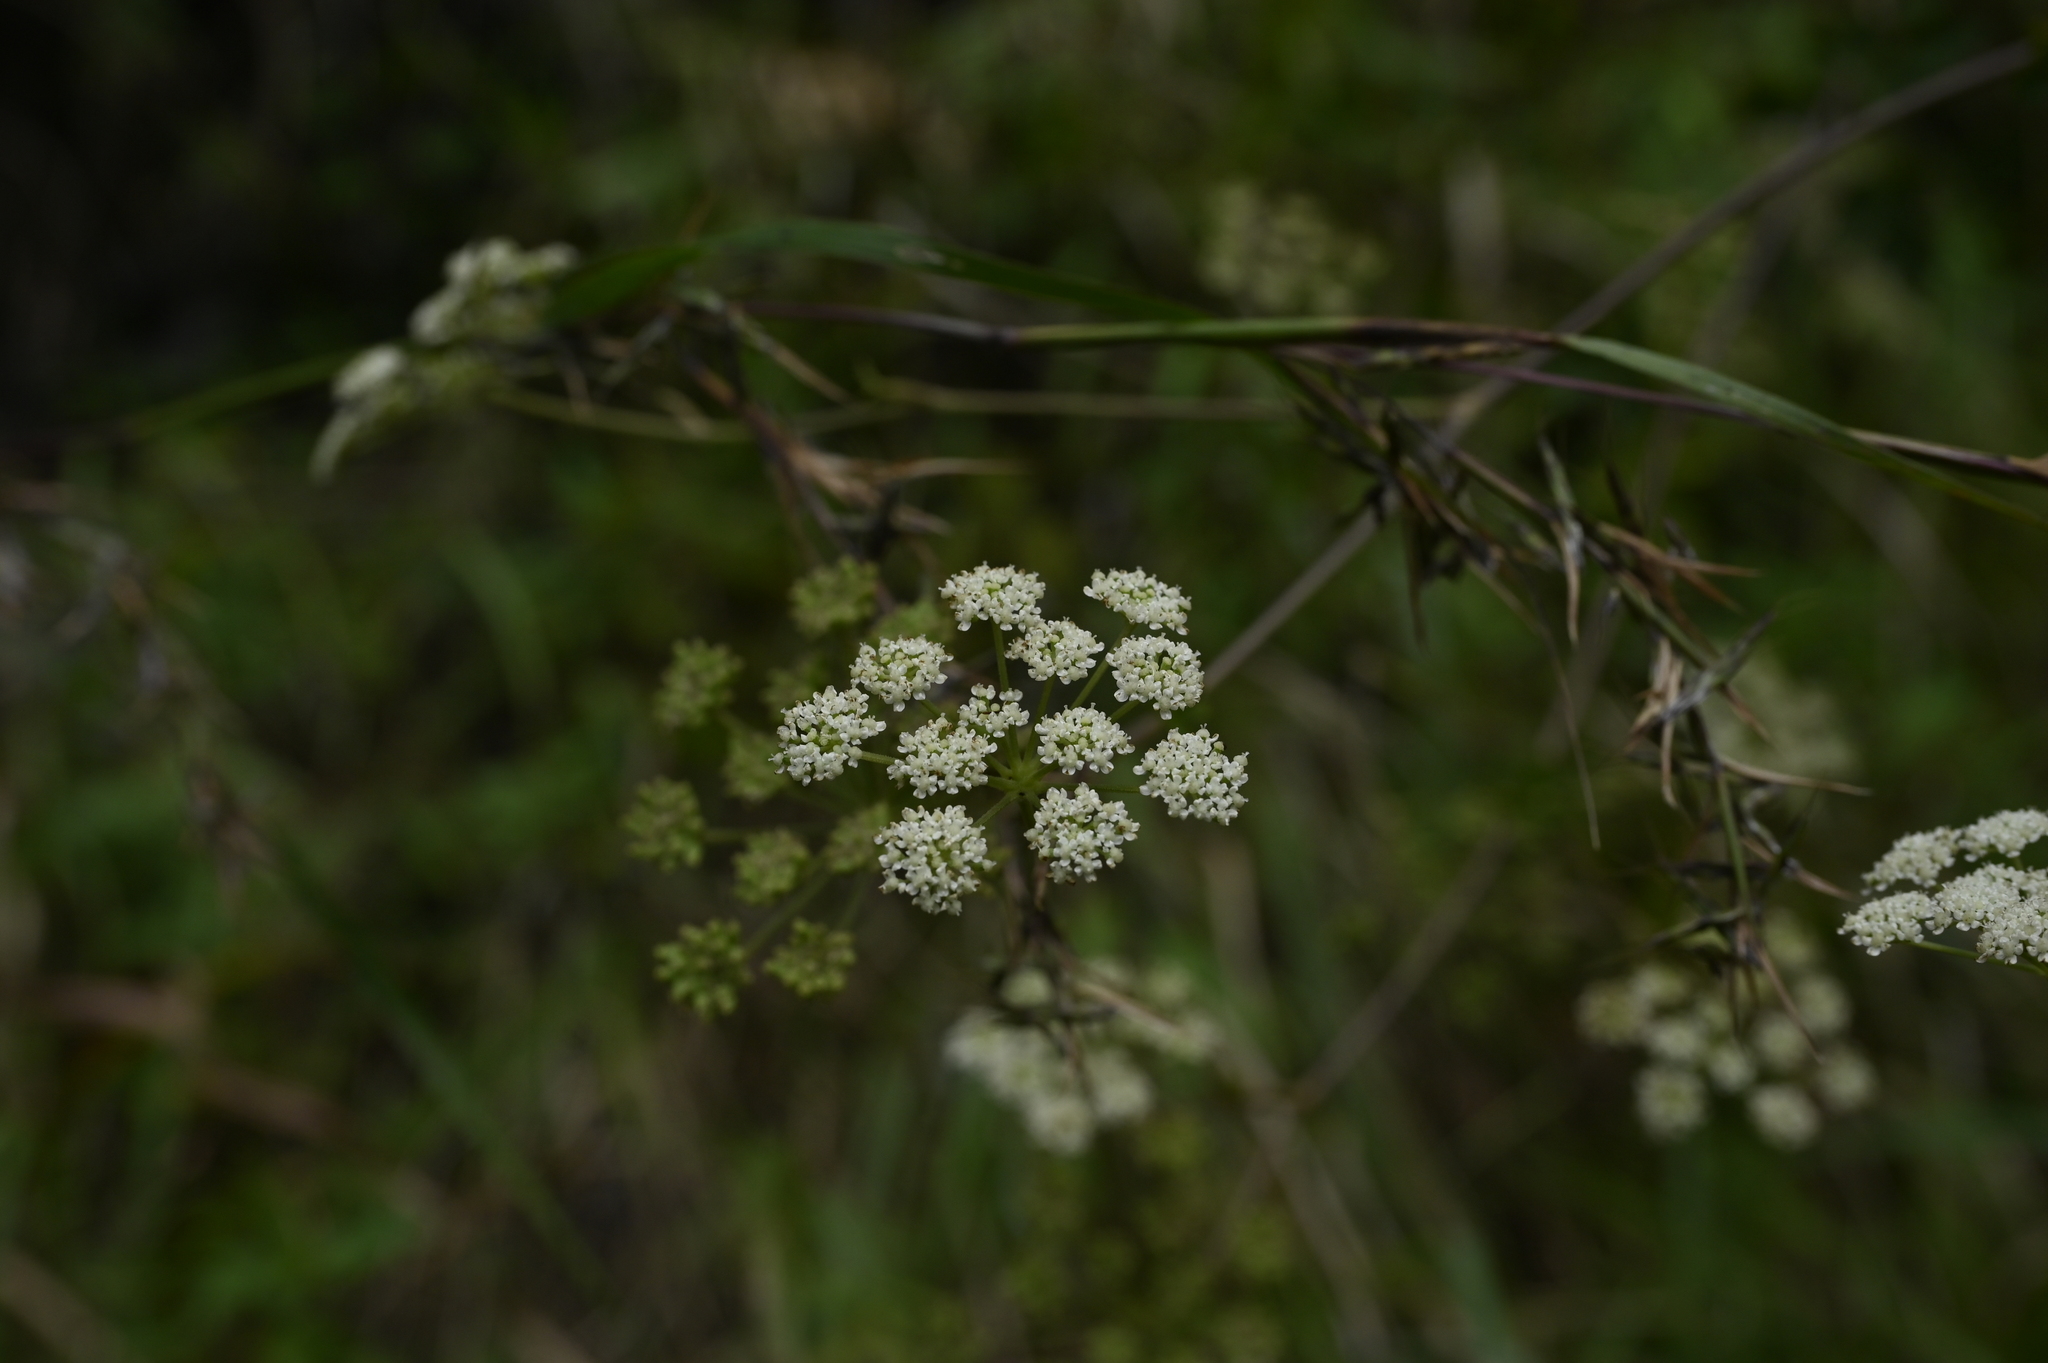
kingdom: Plantae
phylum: Tracheophyta
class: Magnoliopsida
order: Apiales
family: Apiaceae
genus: Kitagawia
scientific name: Kitagawia formosana
